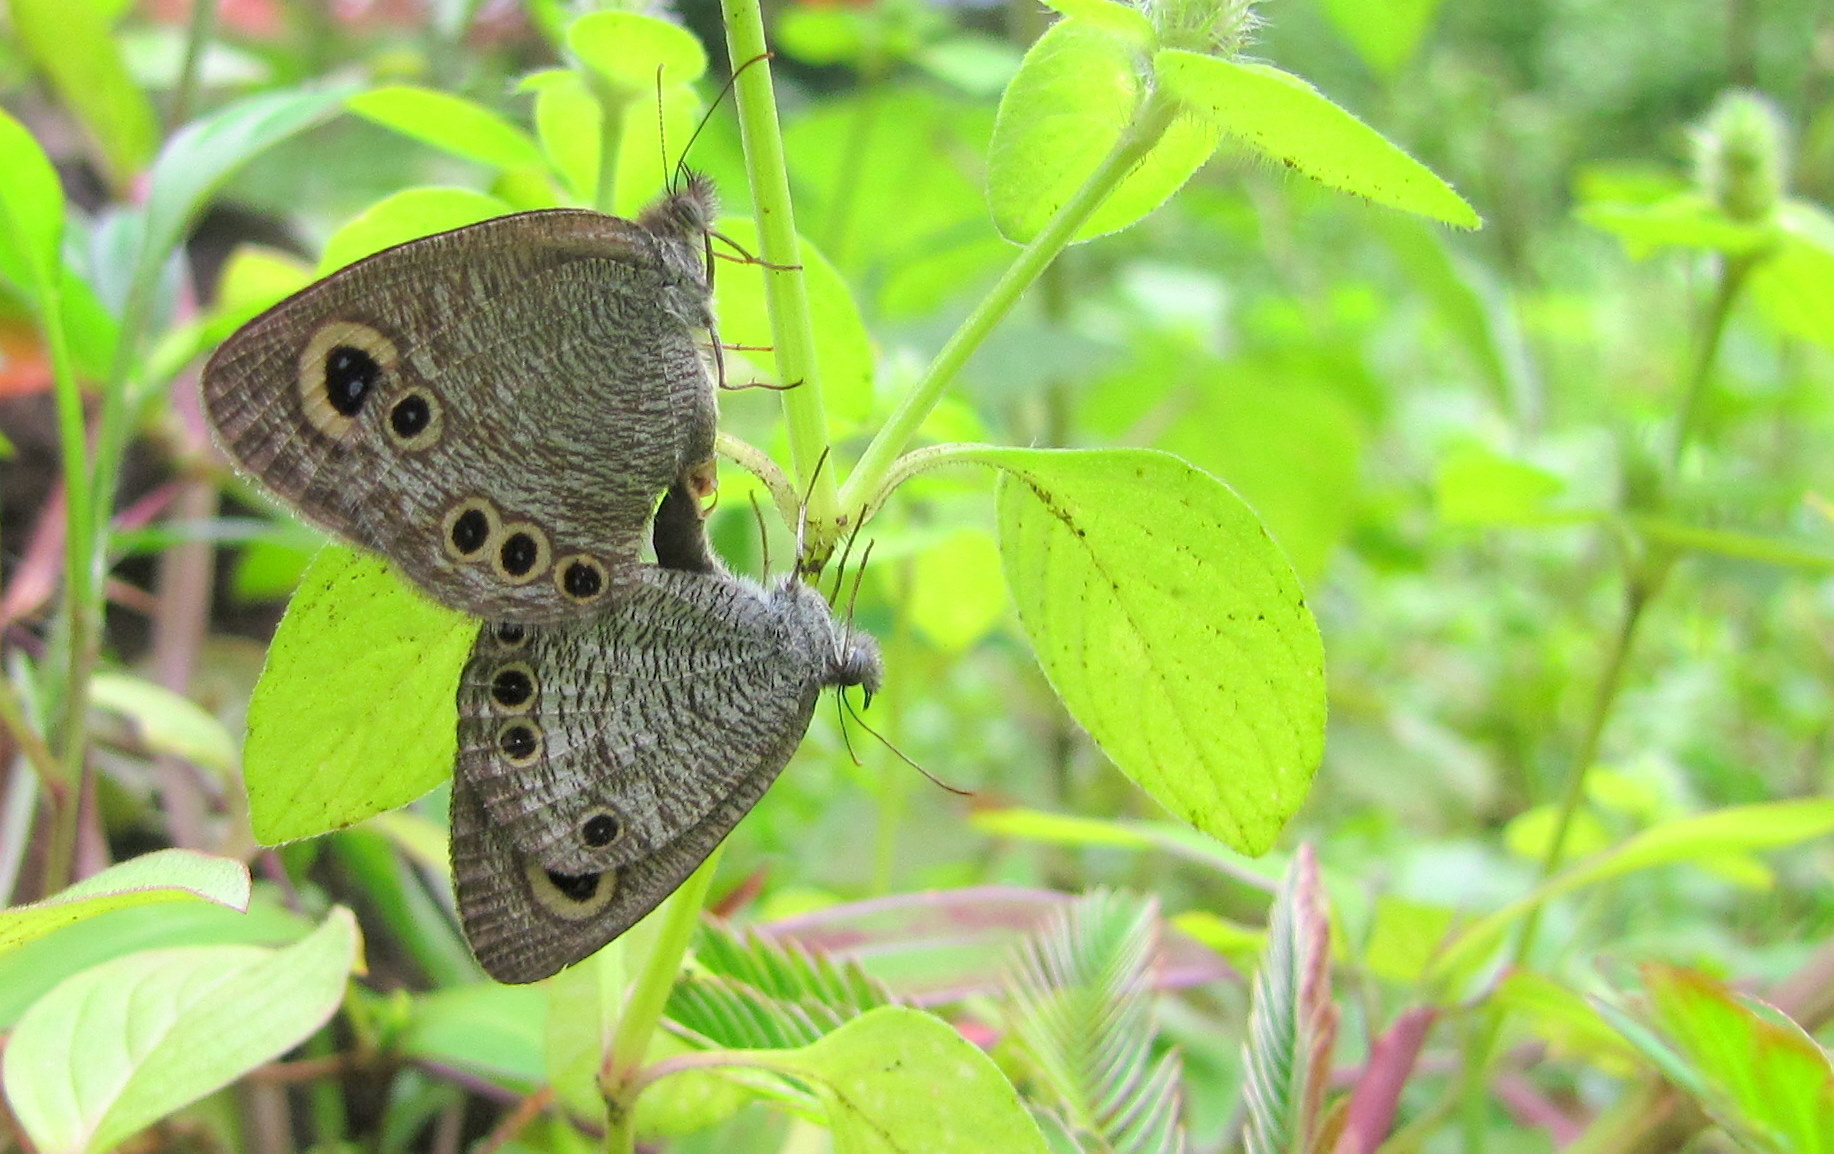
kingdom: Animalia
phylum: Arthropoda
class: Insecta
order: Lepidoptera
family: Nymphalidae
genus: Ypthima
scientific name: Ypthima huebneri
